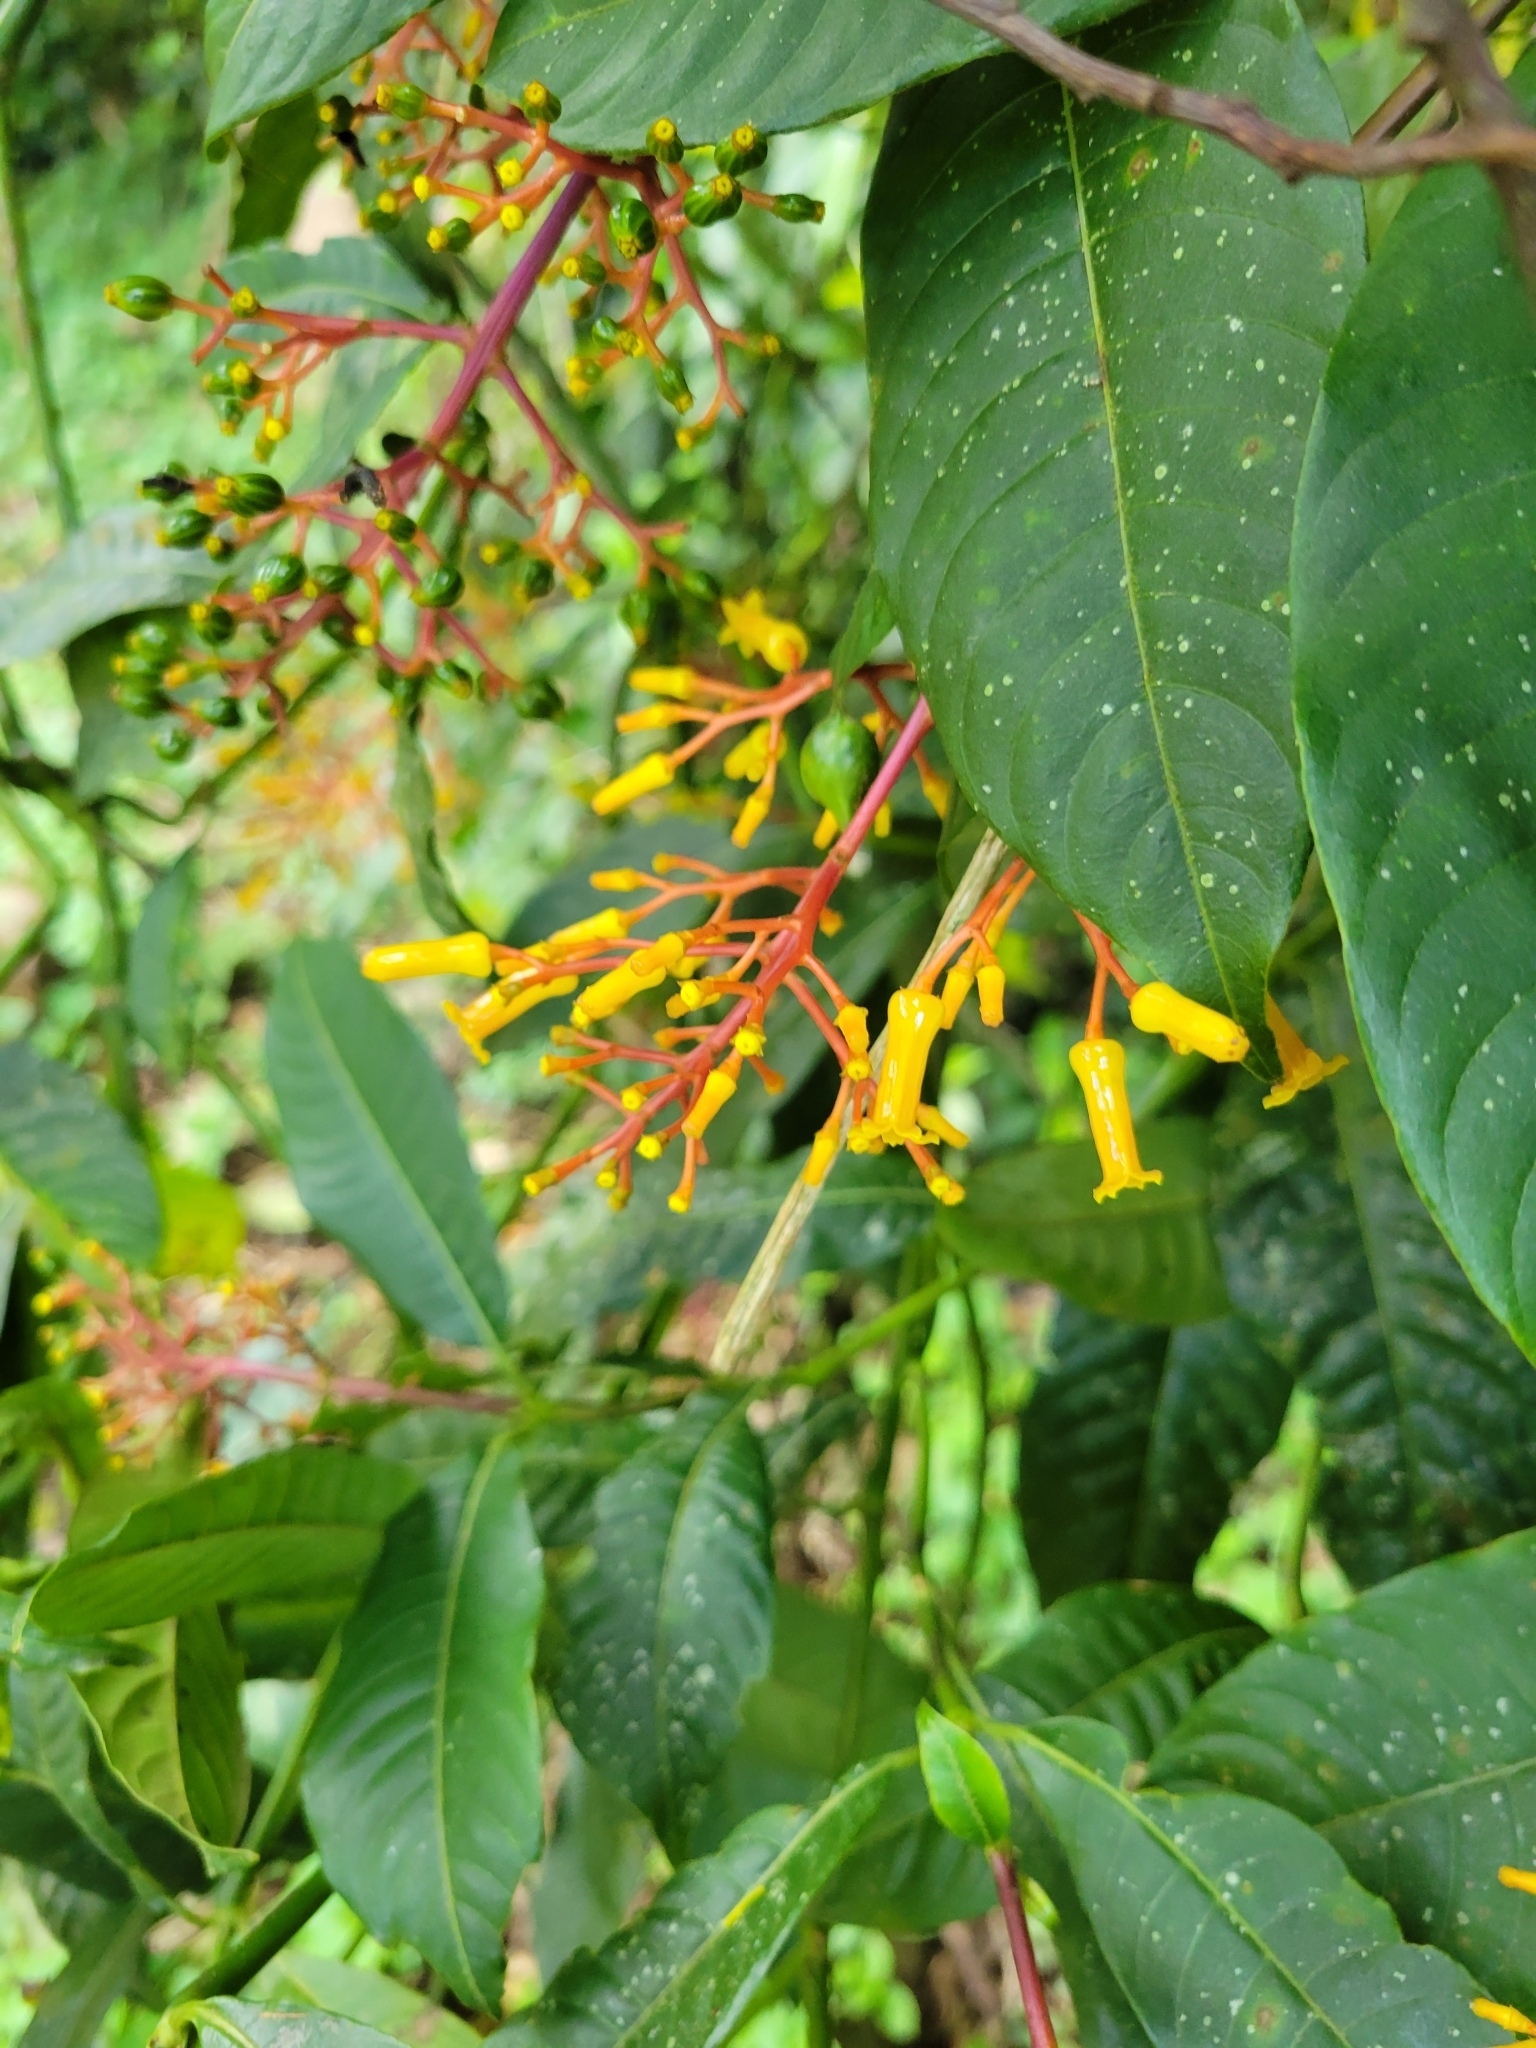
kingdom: Plantae
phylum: Tracheophyta
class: Magnoliopsida
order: Gentianales
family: Rubiaceae
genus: Palicourea
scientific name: Palicourea padifolia
